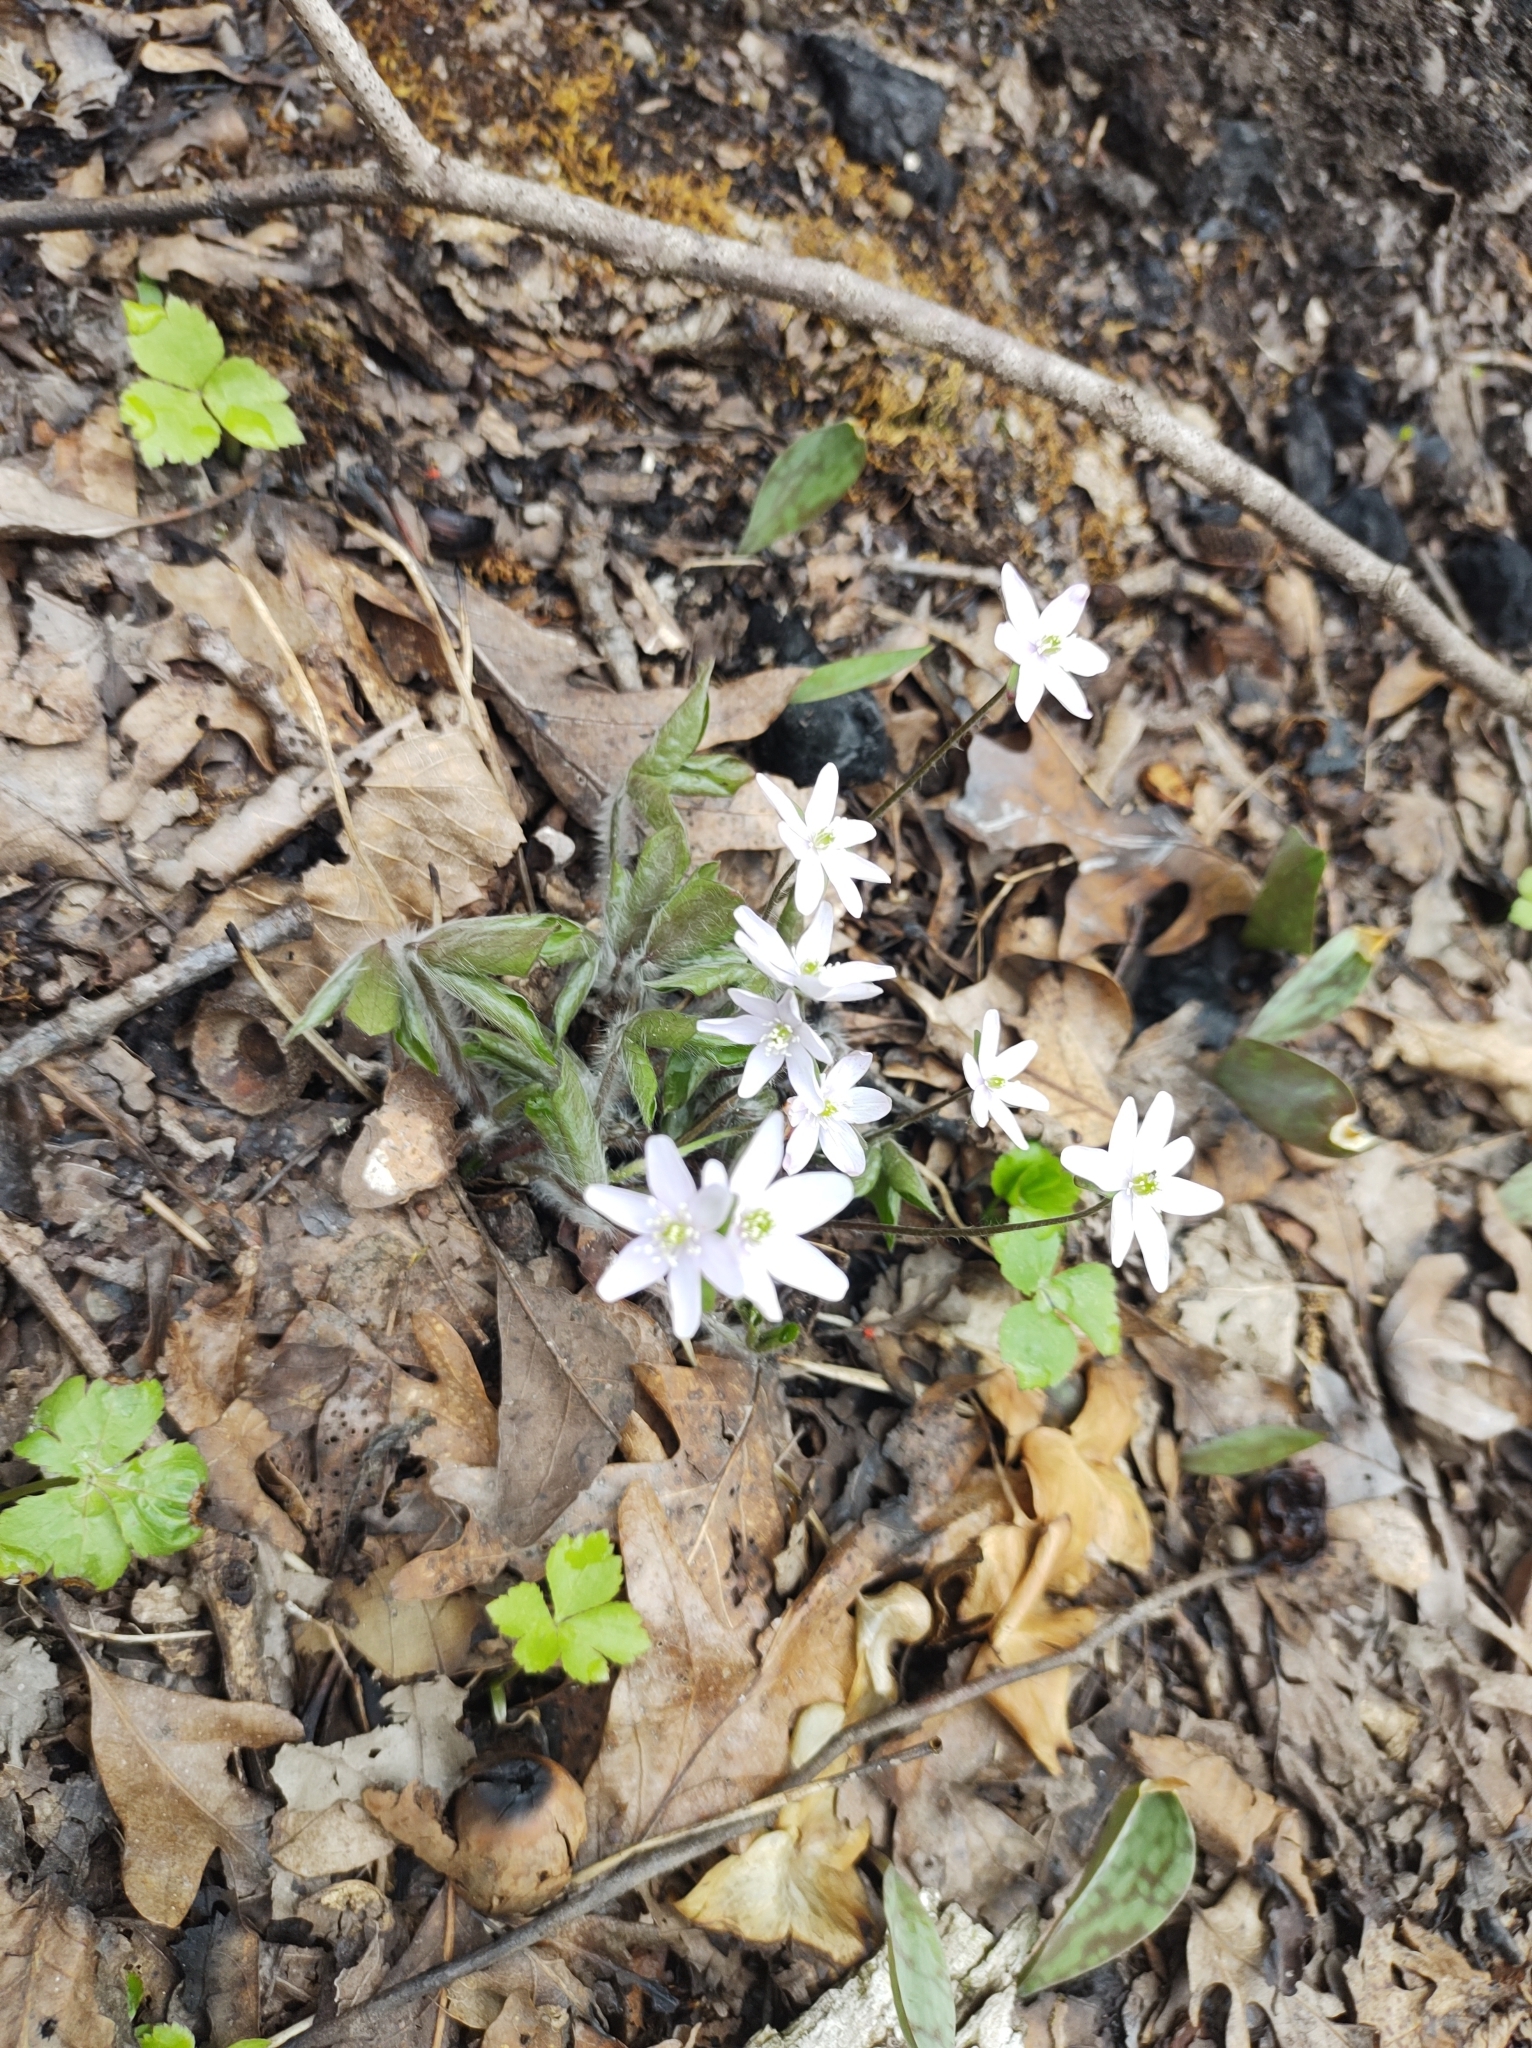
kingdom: Plantae
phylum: Tracheophyta
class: Magnoliopsida
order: Ranunculales
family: Ranunculaceae
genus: Hepatica
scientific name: Hepatica acutiloba
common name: Sharp-lobed hepatica
